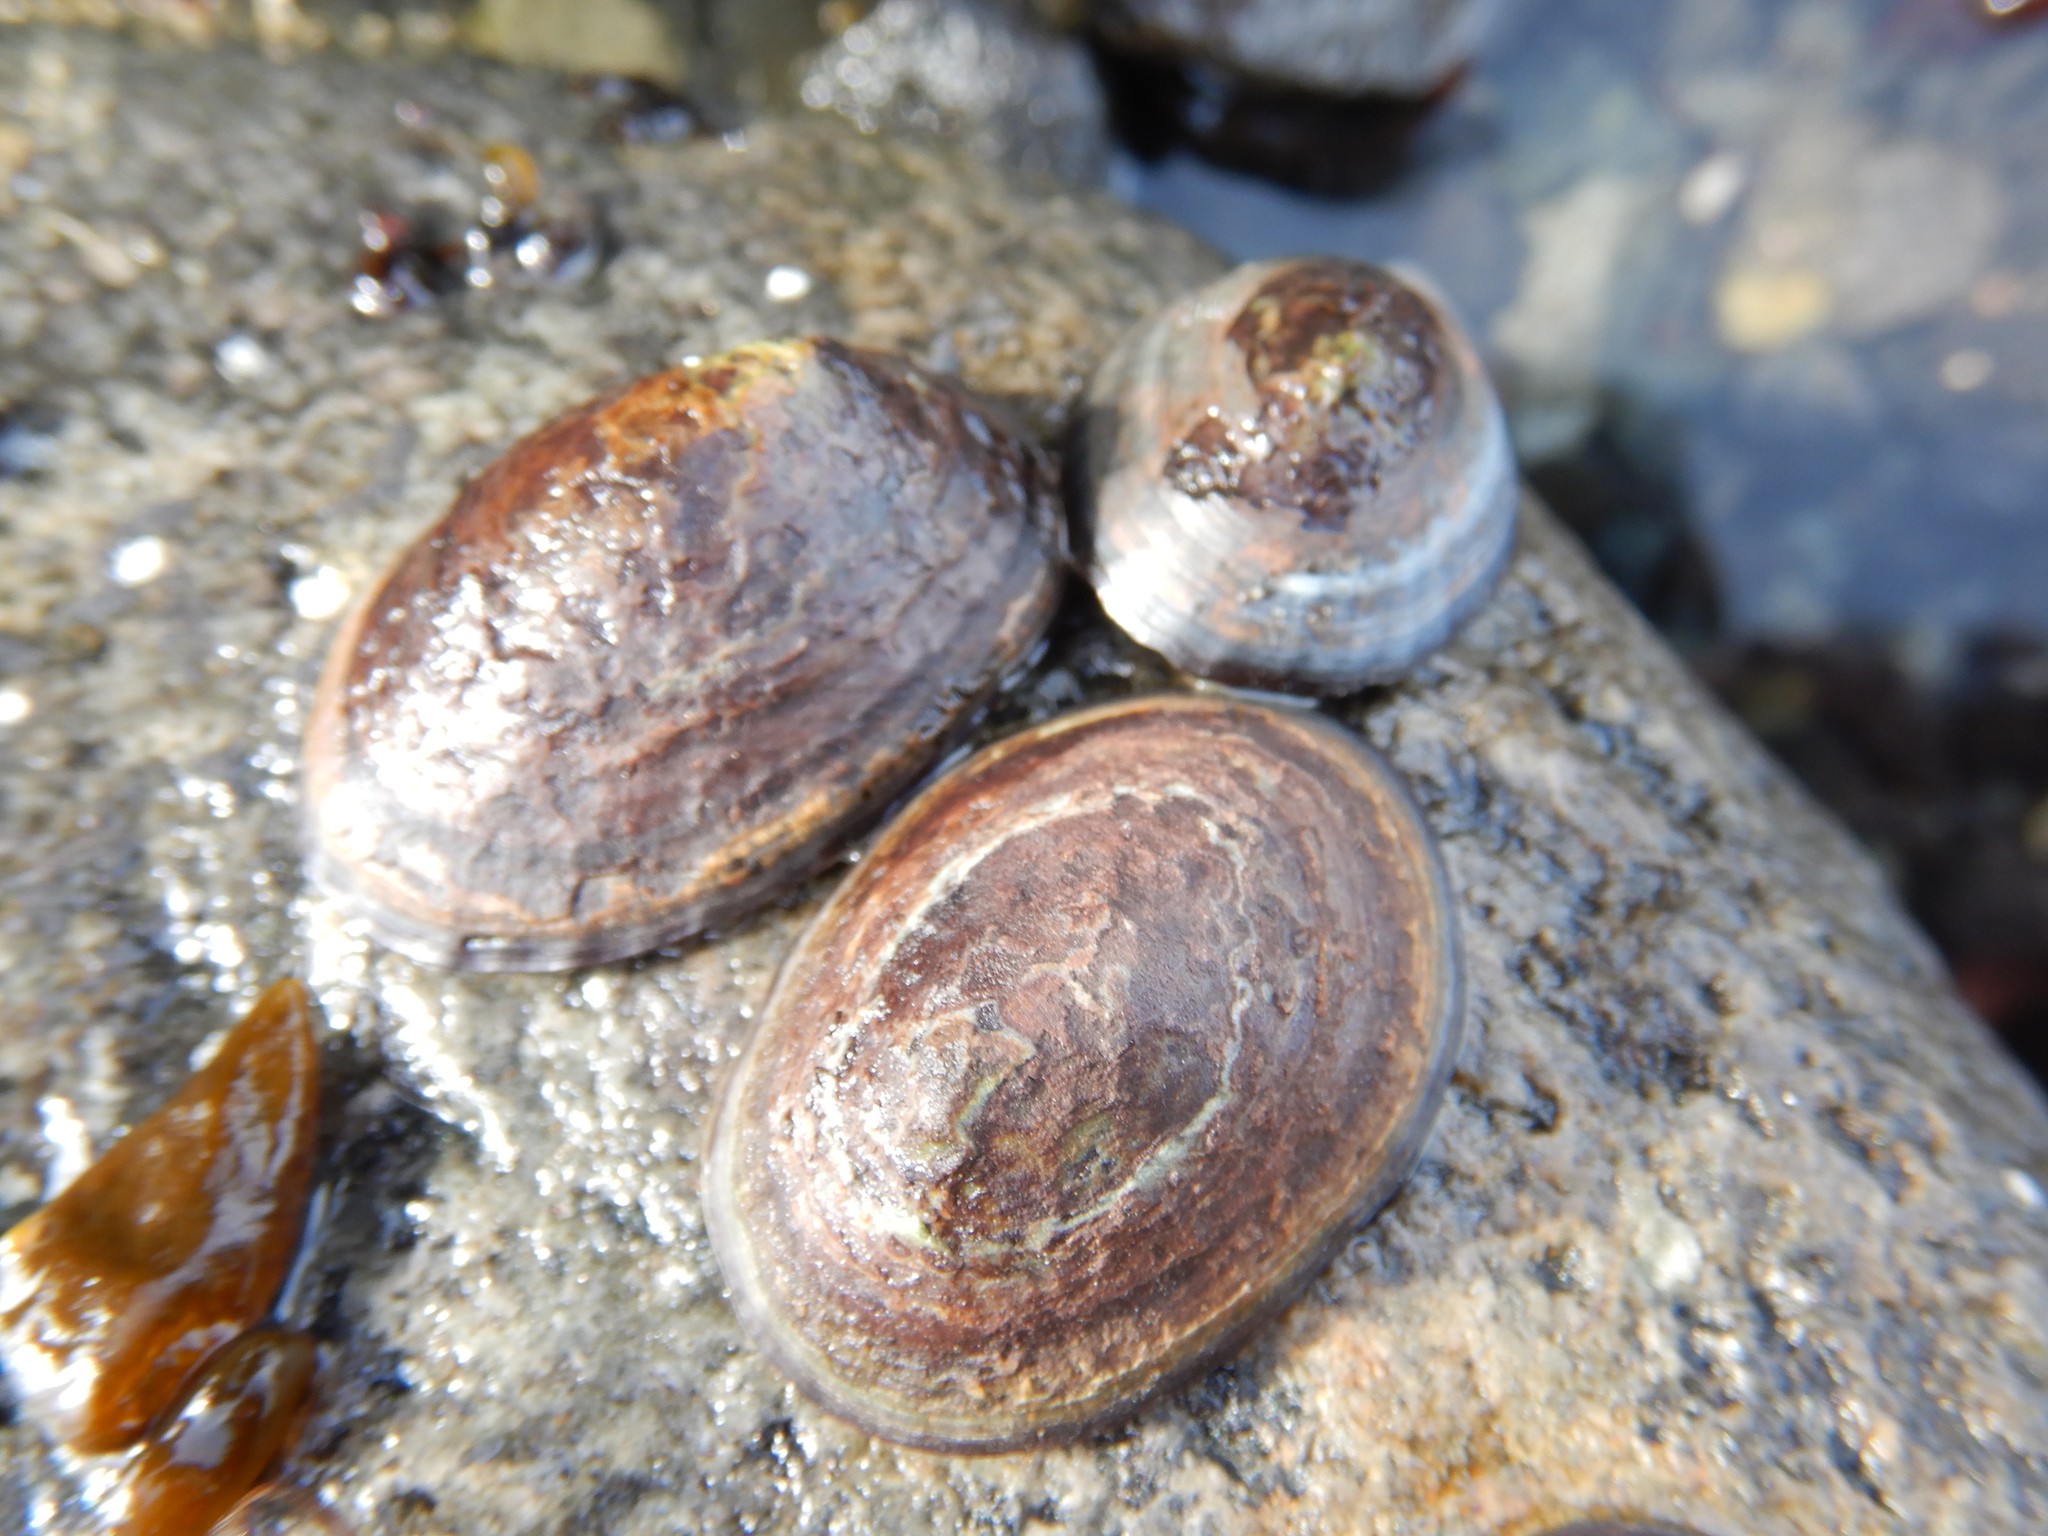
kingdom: Animalia
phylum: Mollusca
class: Gastropoda
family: Nacellidae
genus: Nacella
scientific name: Nacella concinna
